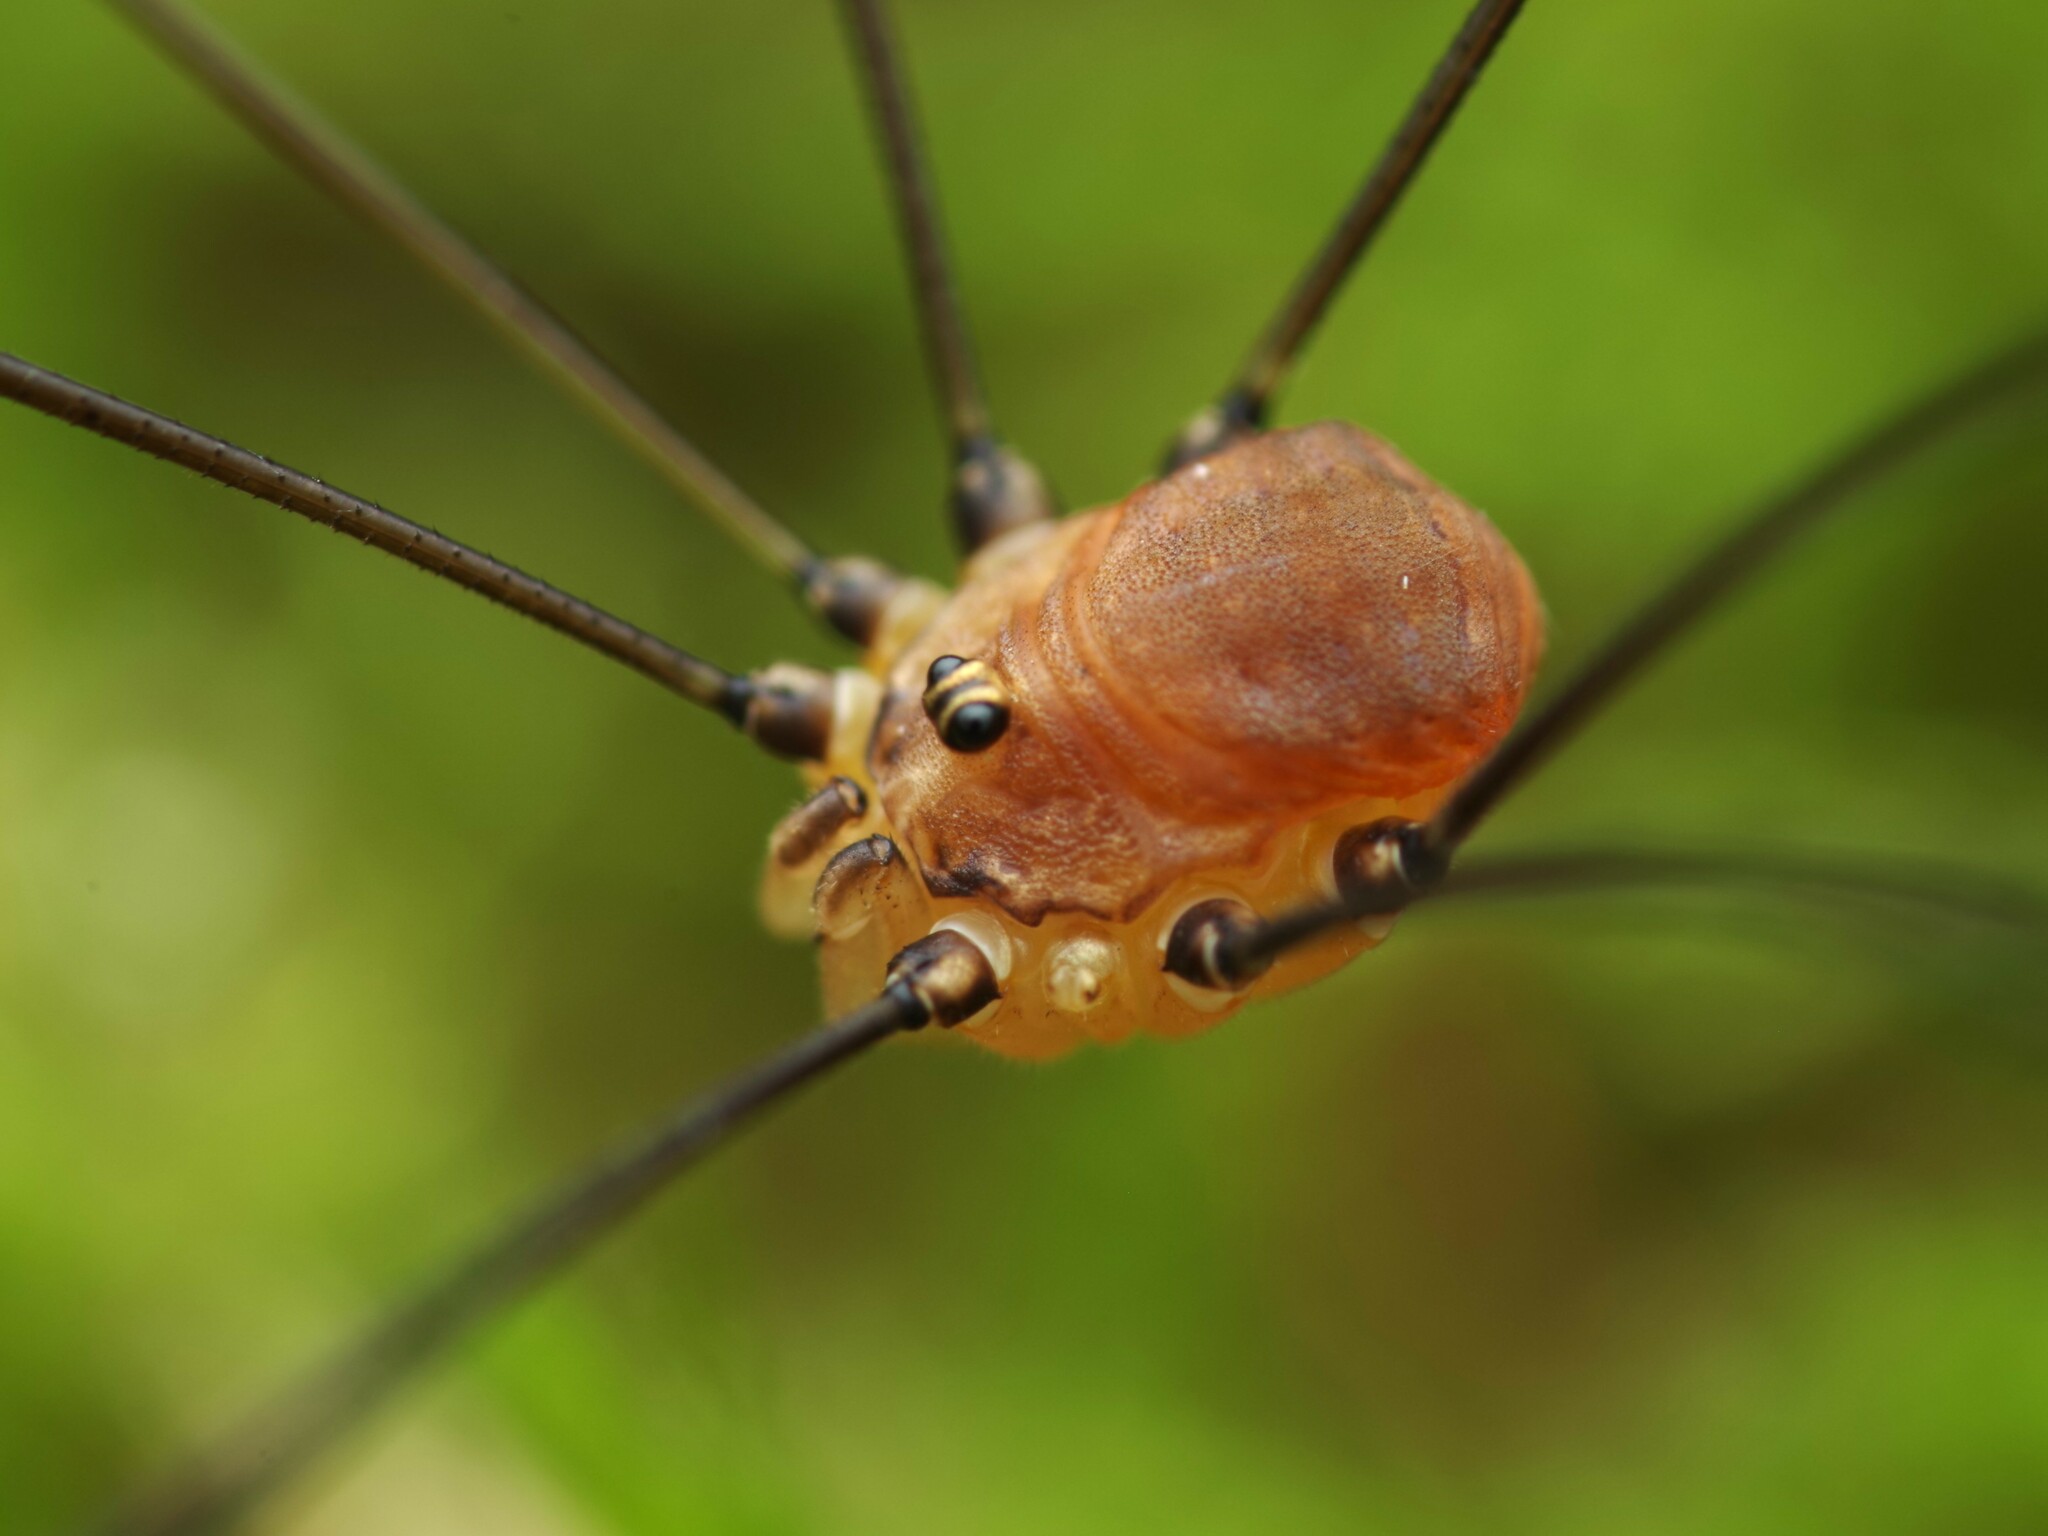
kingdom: Animalia
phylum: Arthropoda
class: Arachnida
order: Opiliones
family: Sclerosomatidae
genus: Leiobunum
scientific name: Leiobunum blackwalli
